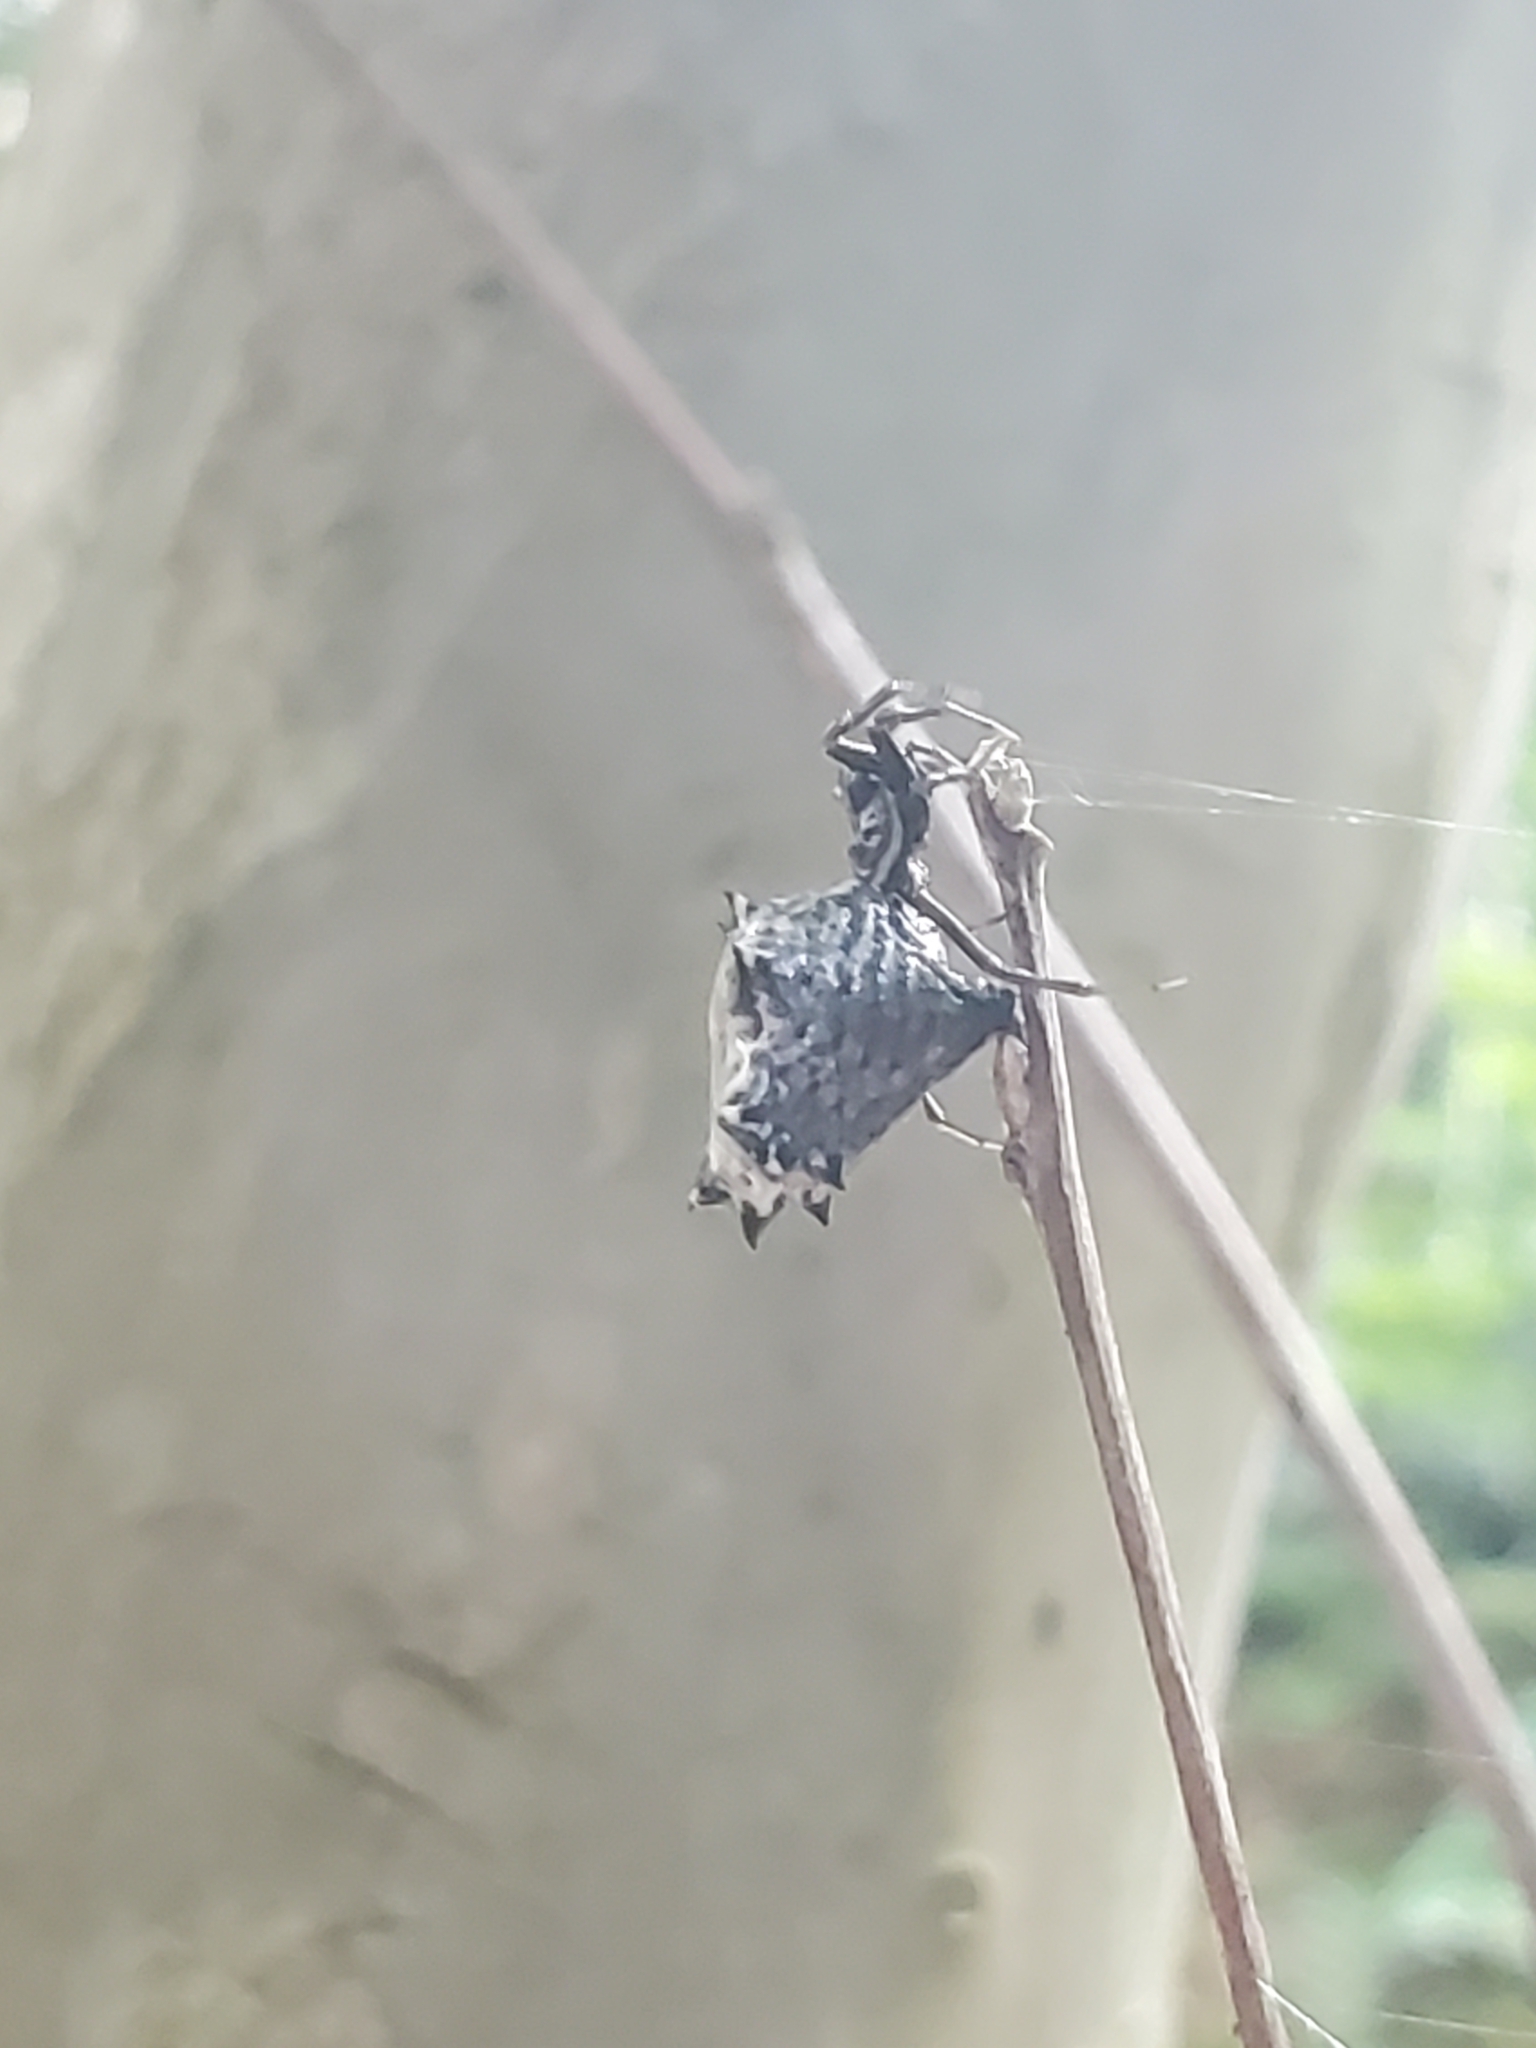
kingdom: Animalia
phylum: Arthropoda
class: Arachnida
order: Araneae
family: Araneidae
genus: Micrathena
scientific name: Micrathena gracilis
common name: Orb weavers
